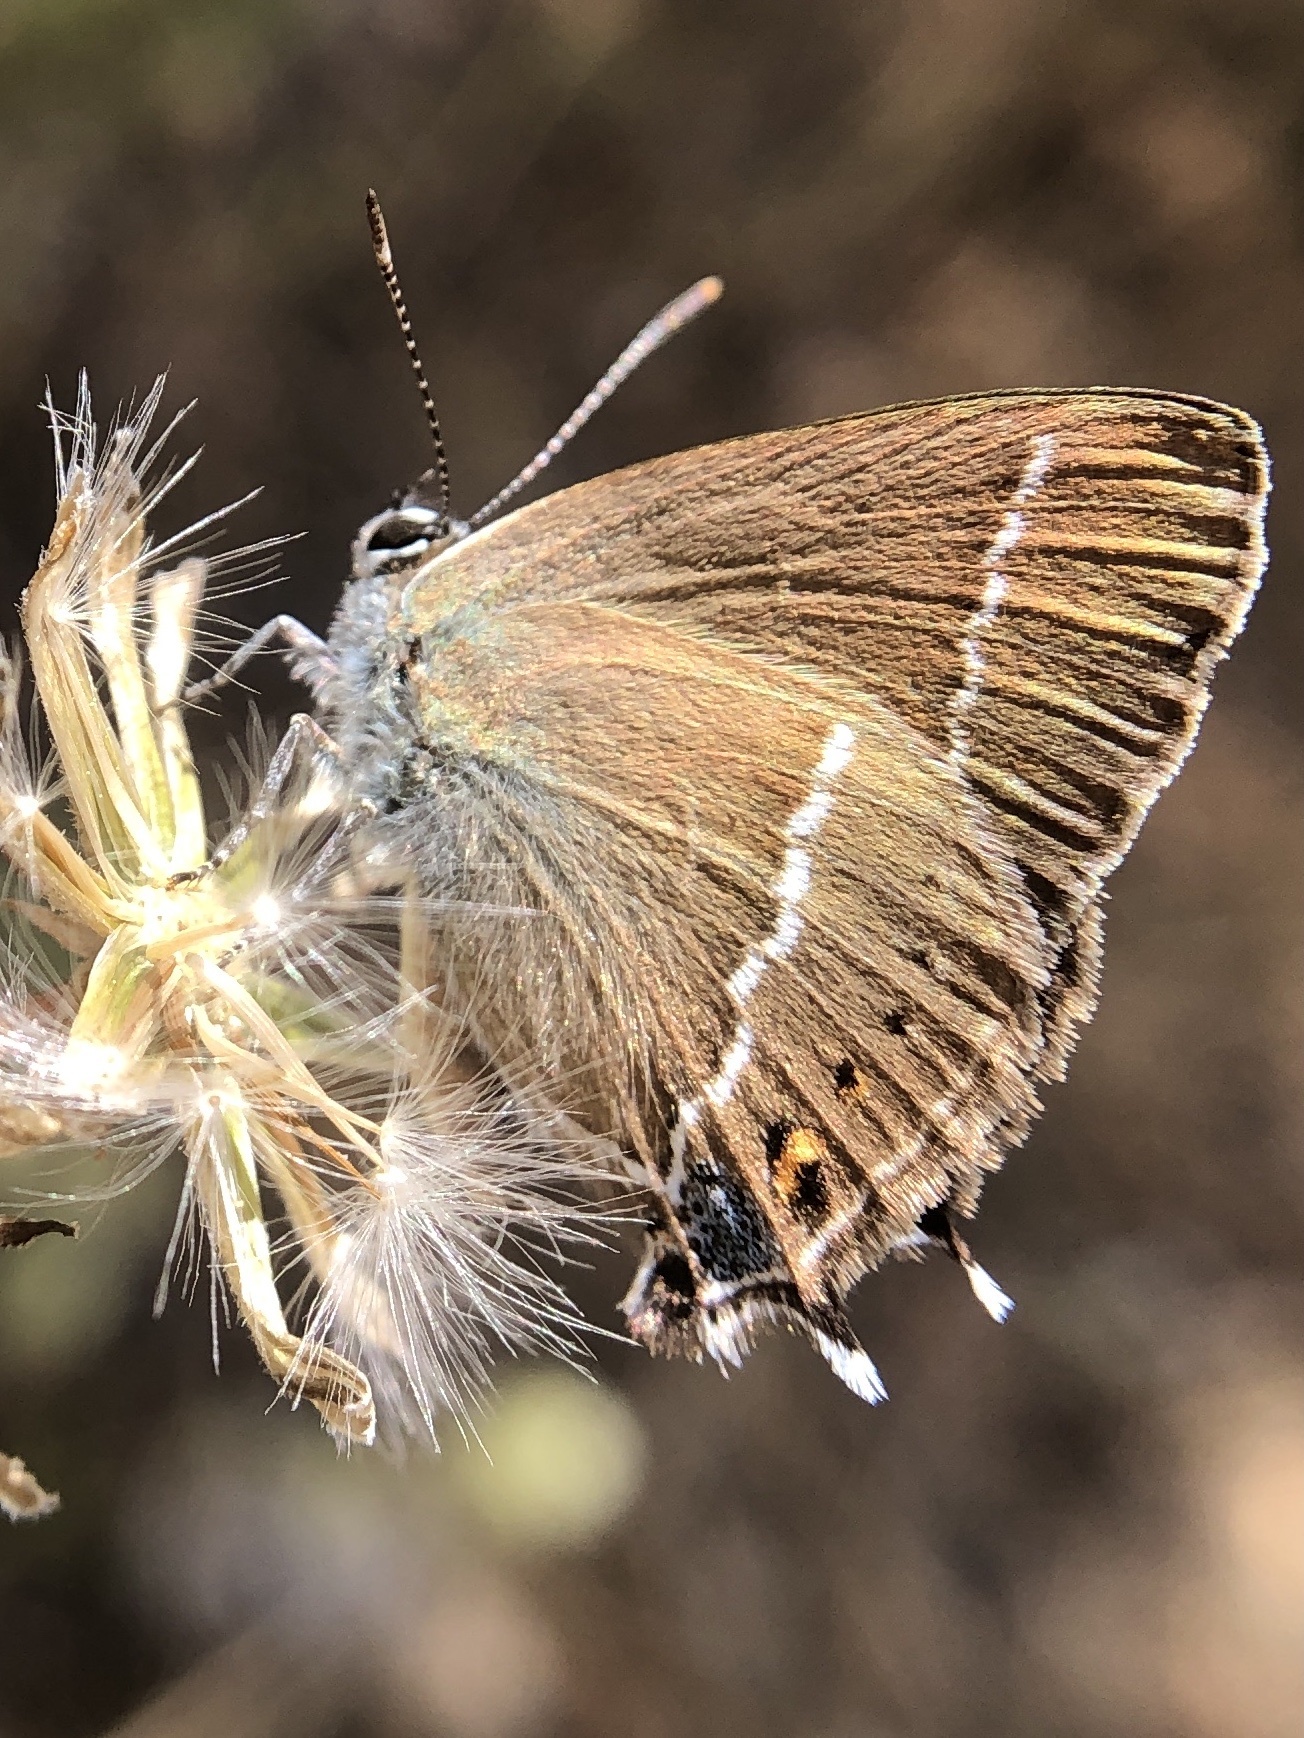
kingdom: Animalia
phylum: Arthropoda
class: Insecta
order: Lepidoptera
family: Lycaenidae
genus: Tuttiola
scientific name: Tuttiola spini
